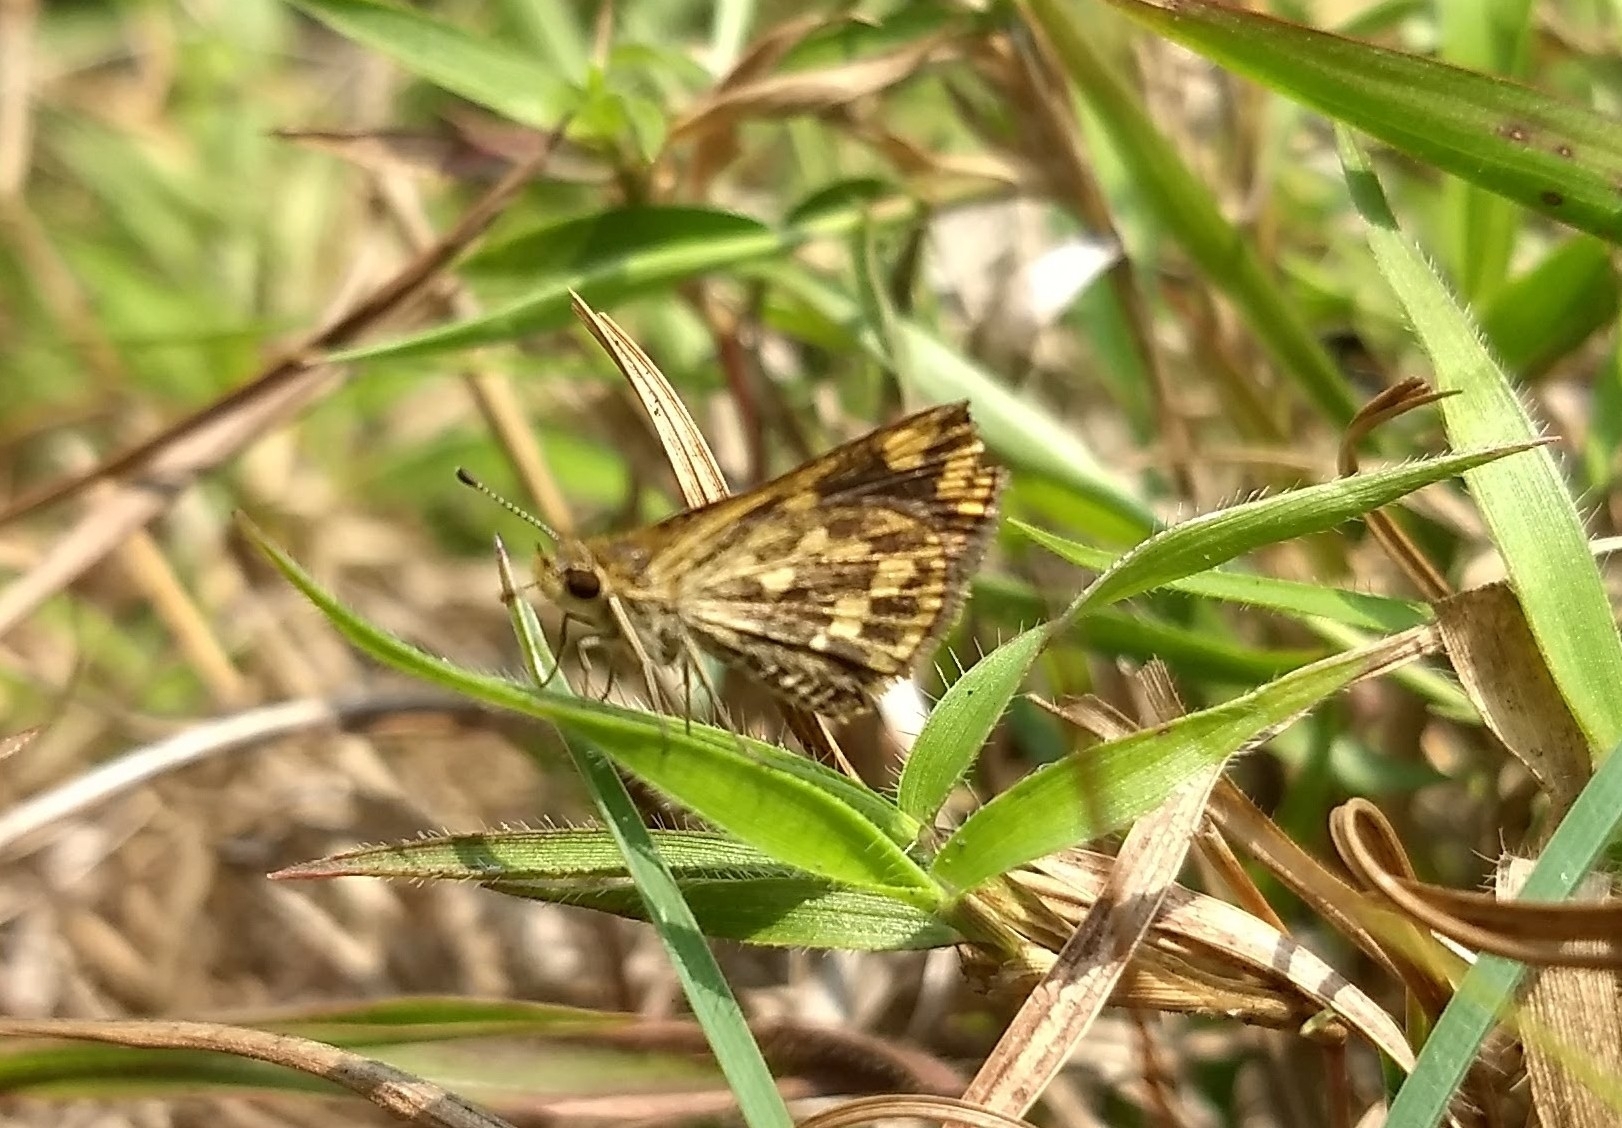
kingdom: Animalia
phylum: Arthropoda
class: Insecta
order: Lepidoptera
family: Hesperiidae
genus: Taractrocera
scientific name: Taractrocera ceramas
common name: Tamil grass dart
